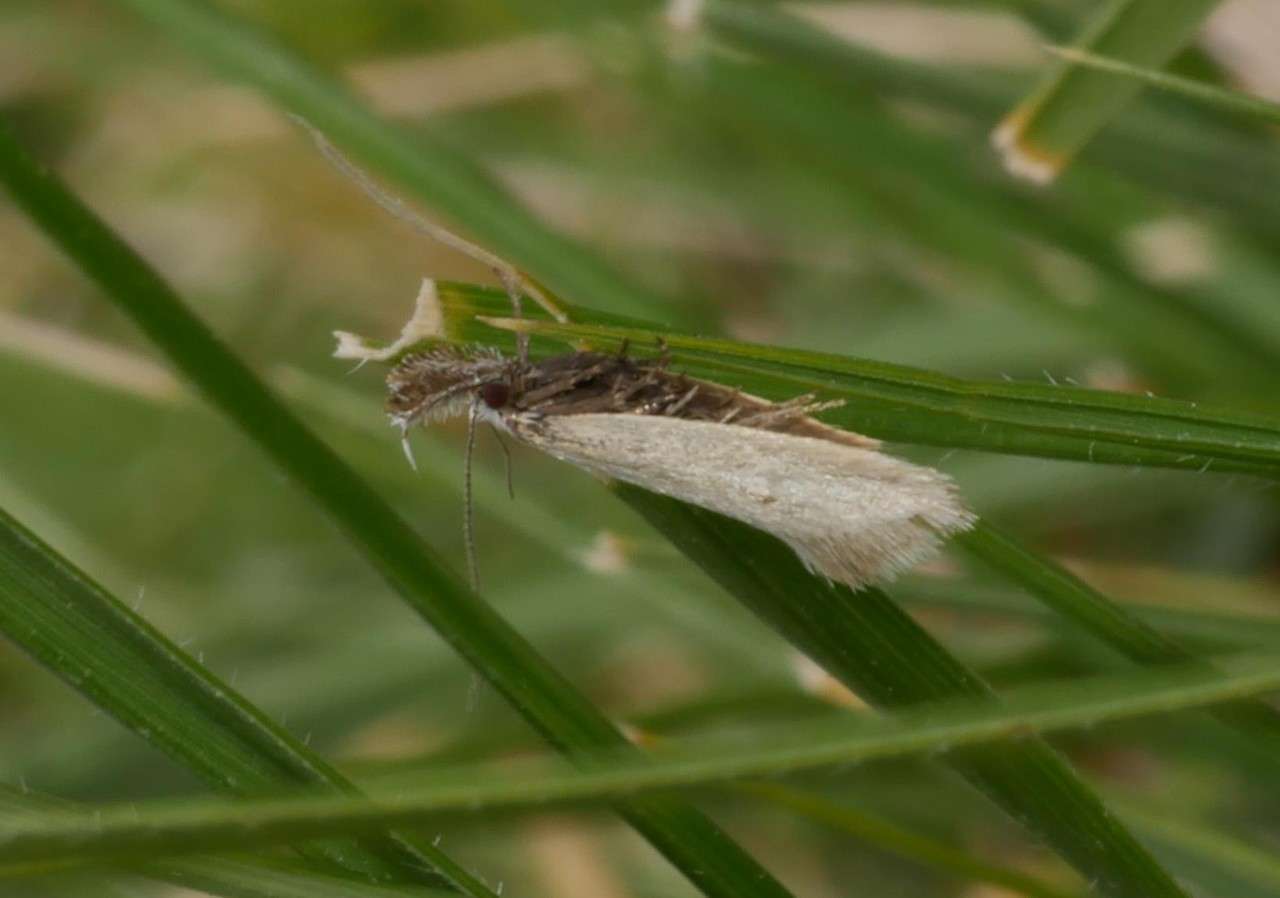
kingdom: Animalia
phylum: Arthropoda
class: Insecta
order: Lepidoptera
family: Oecophoridae
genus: Thema
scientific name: Thema protogramma
